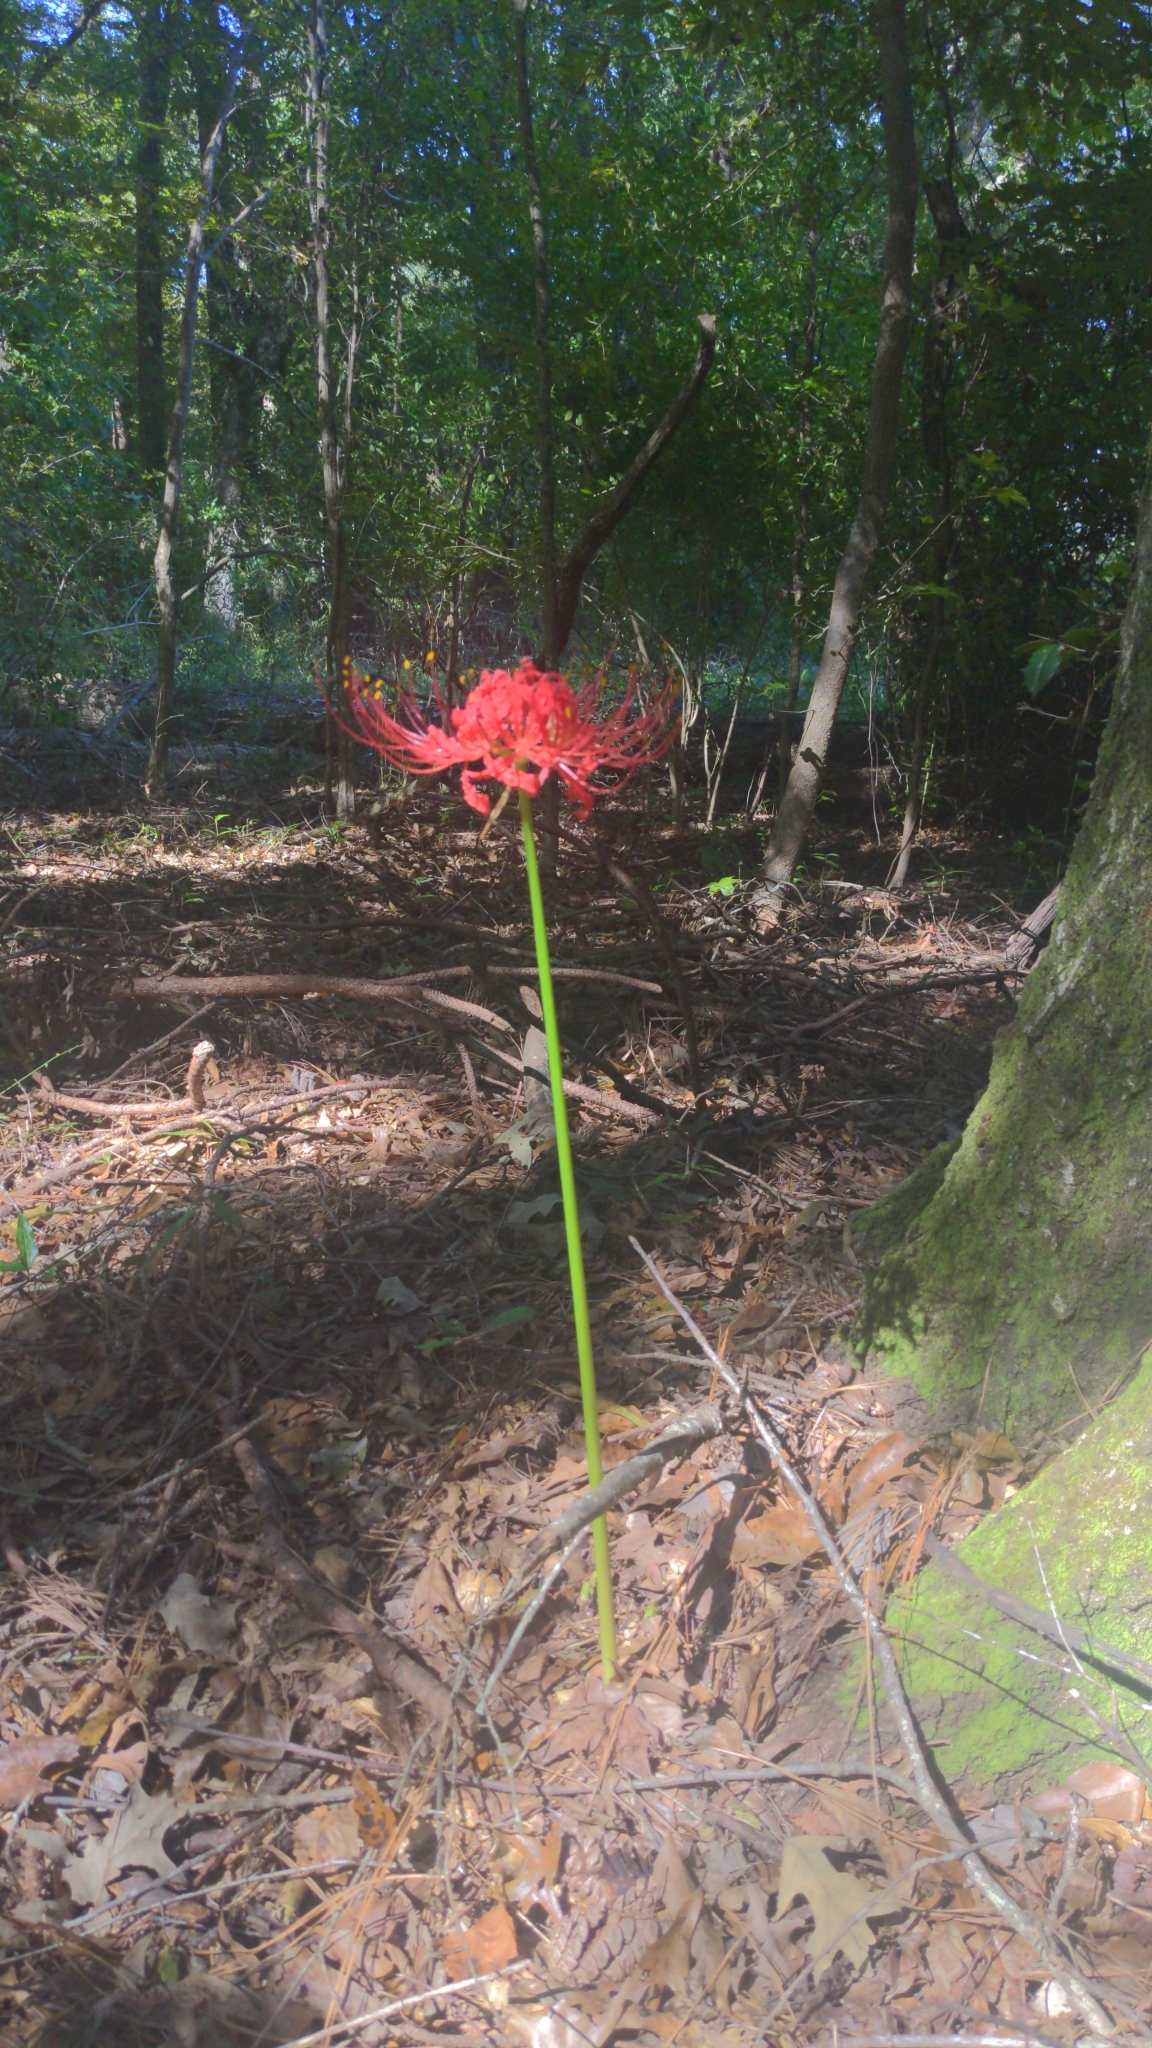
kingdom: Plantae
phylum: Tracheophyta
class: Liliopsida
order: Asparagales
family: Amaryllidaceae
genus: Lycoris
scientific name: Lycoris radiata
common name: Red spider lily
